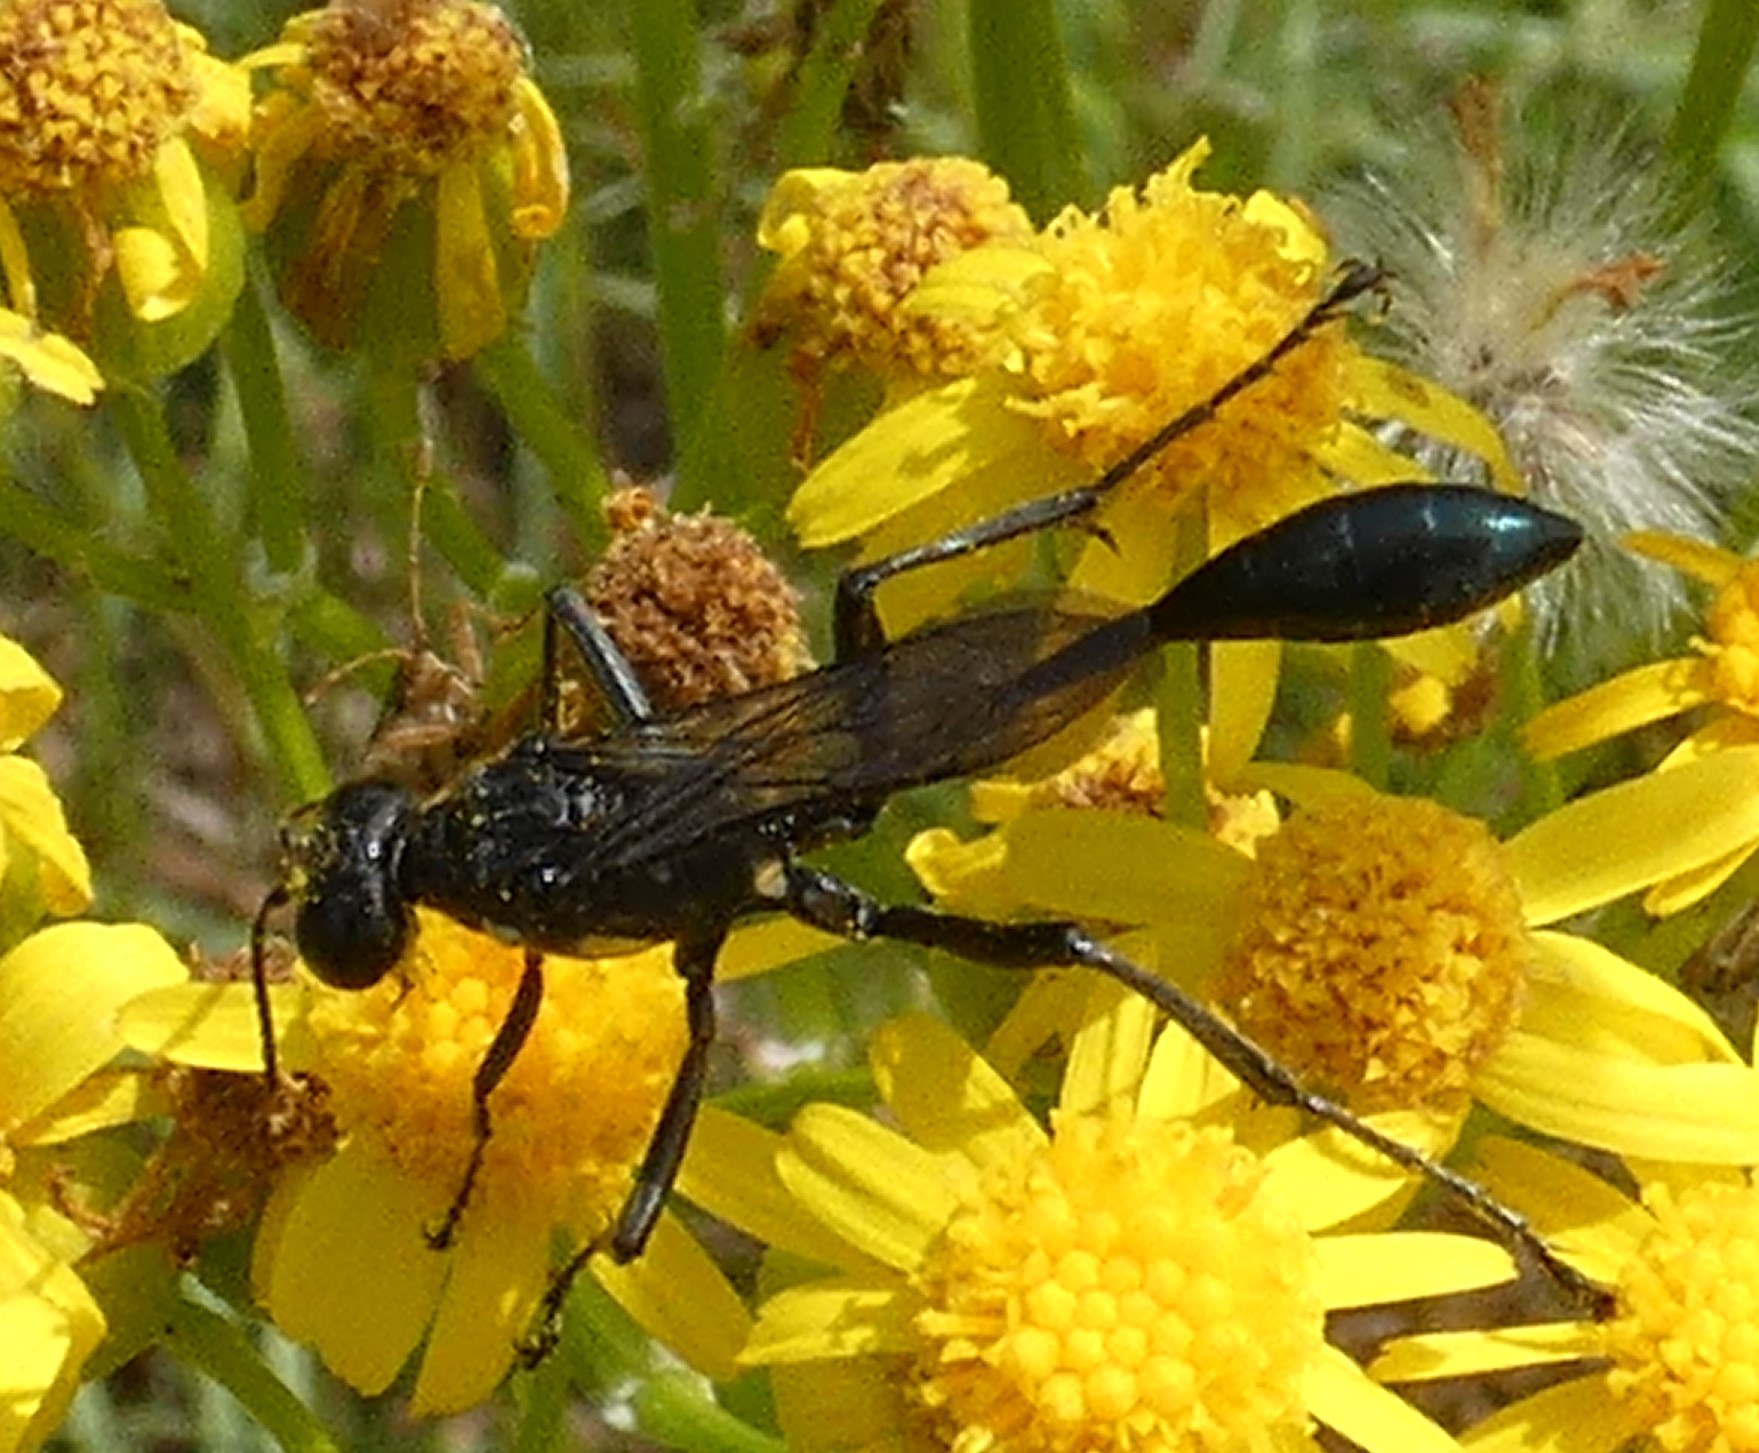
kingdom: Animalia
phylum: Arthropoda
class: Insecta
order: Hymenoptera
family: Sphecidae
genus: Eremnophila
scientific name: Eremnophila aureonotata
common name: Gold-marked thread-waisted wasp
